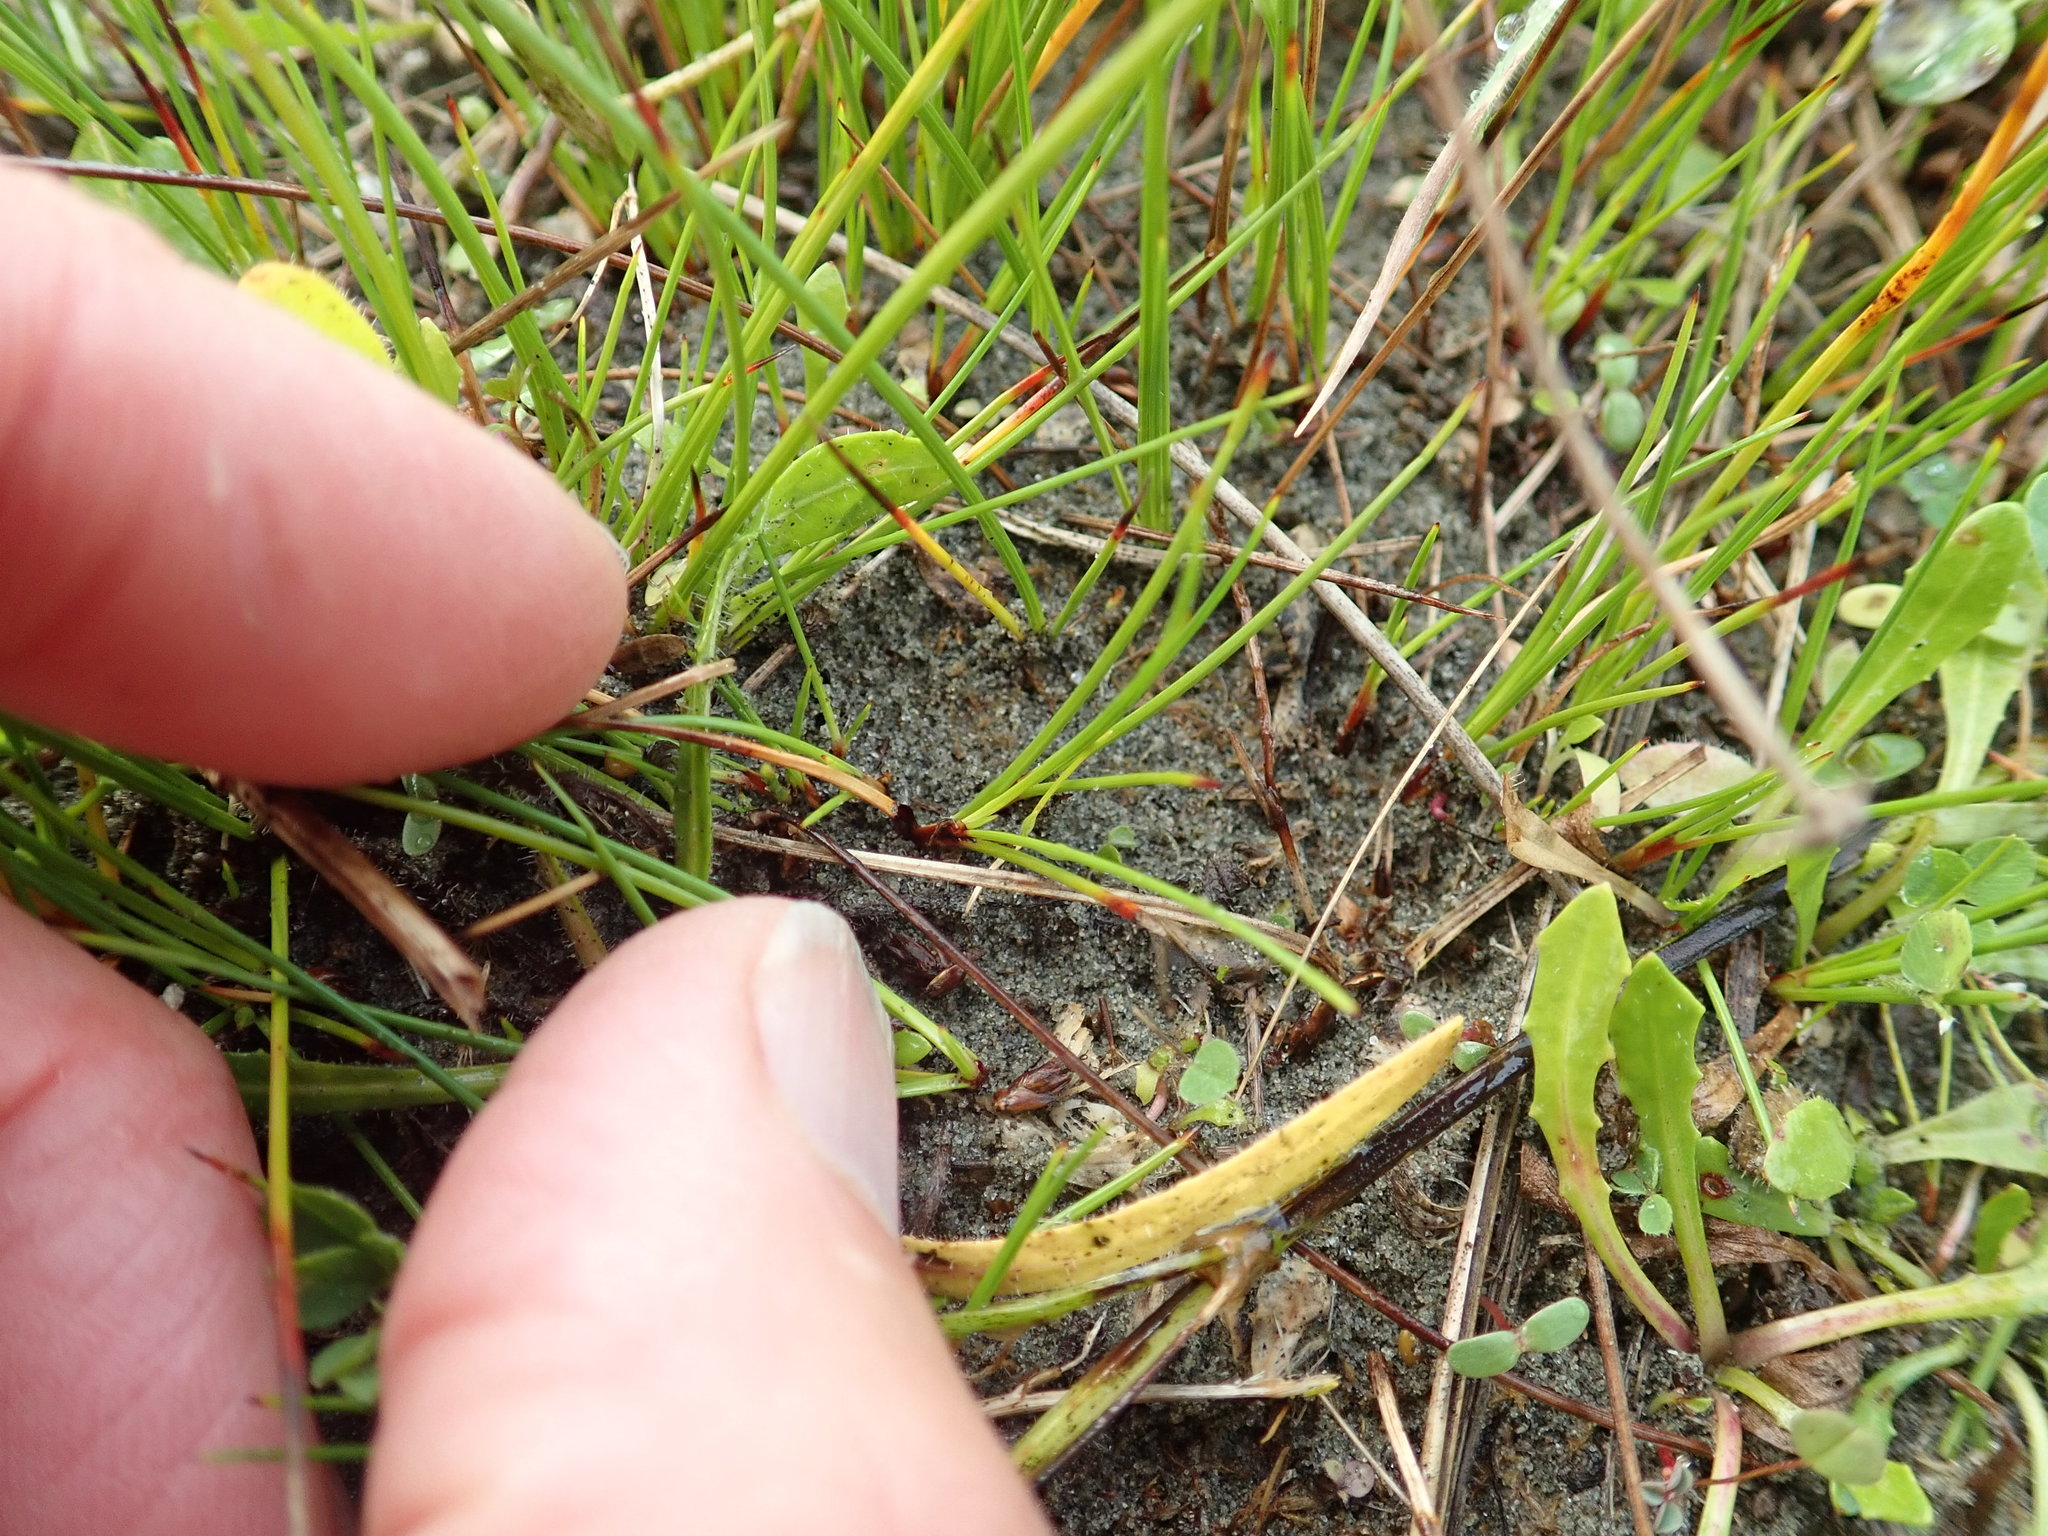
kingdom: Plantae
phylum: Tracheophyta
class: Liliopsida
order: Poales
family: Cyperaceae
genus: Schoenus
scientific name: Schoenus nitens
